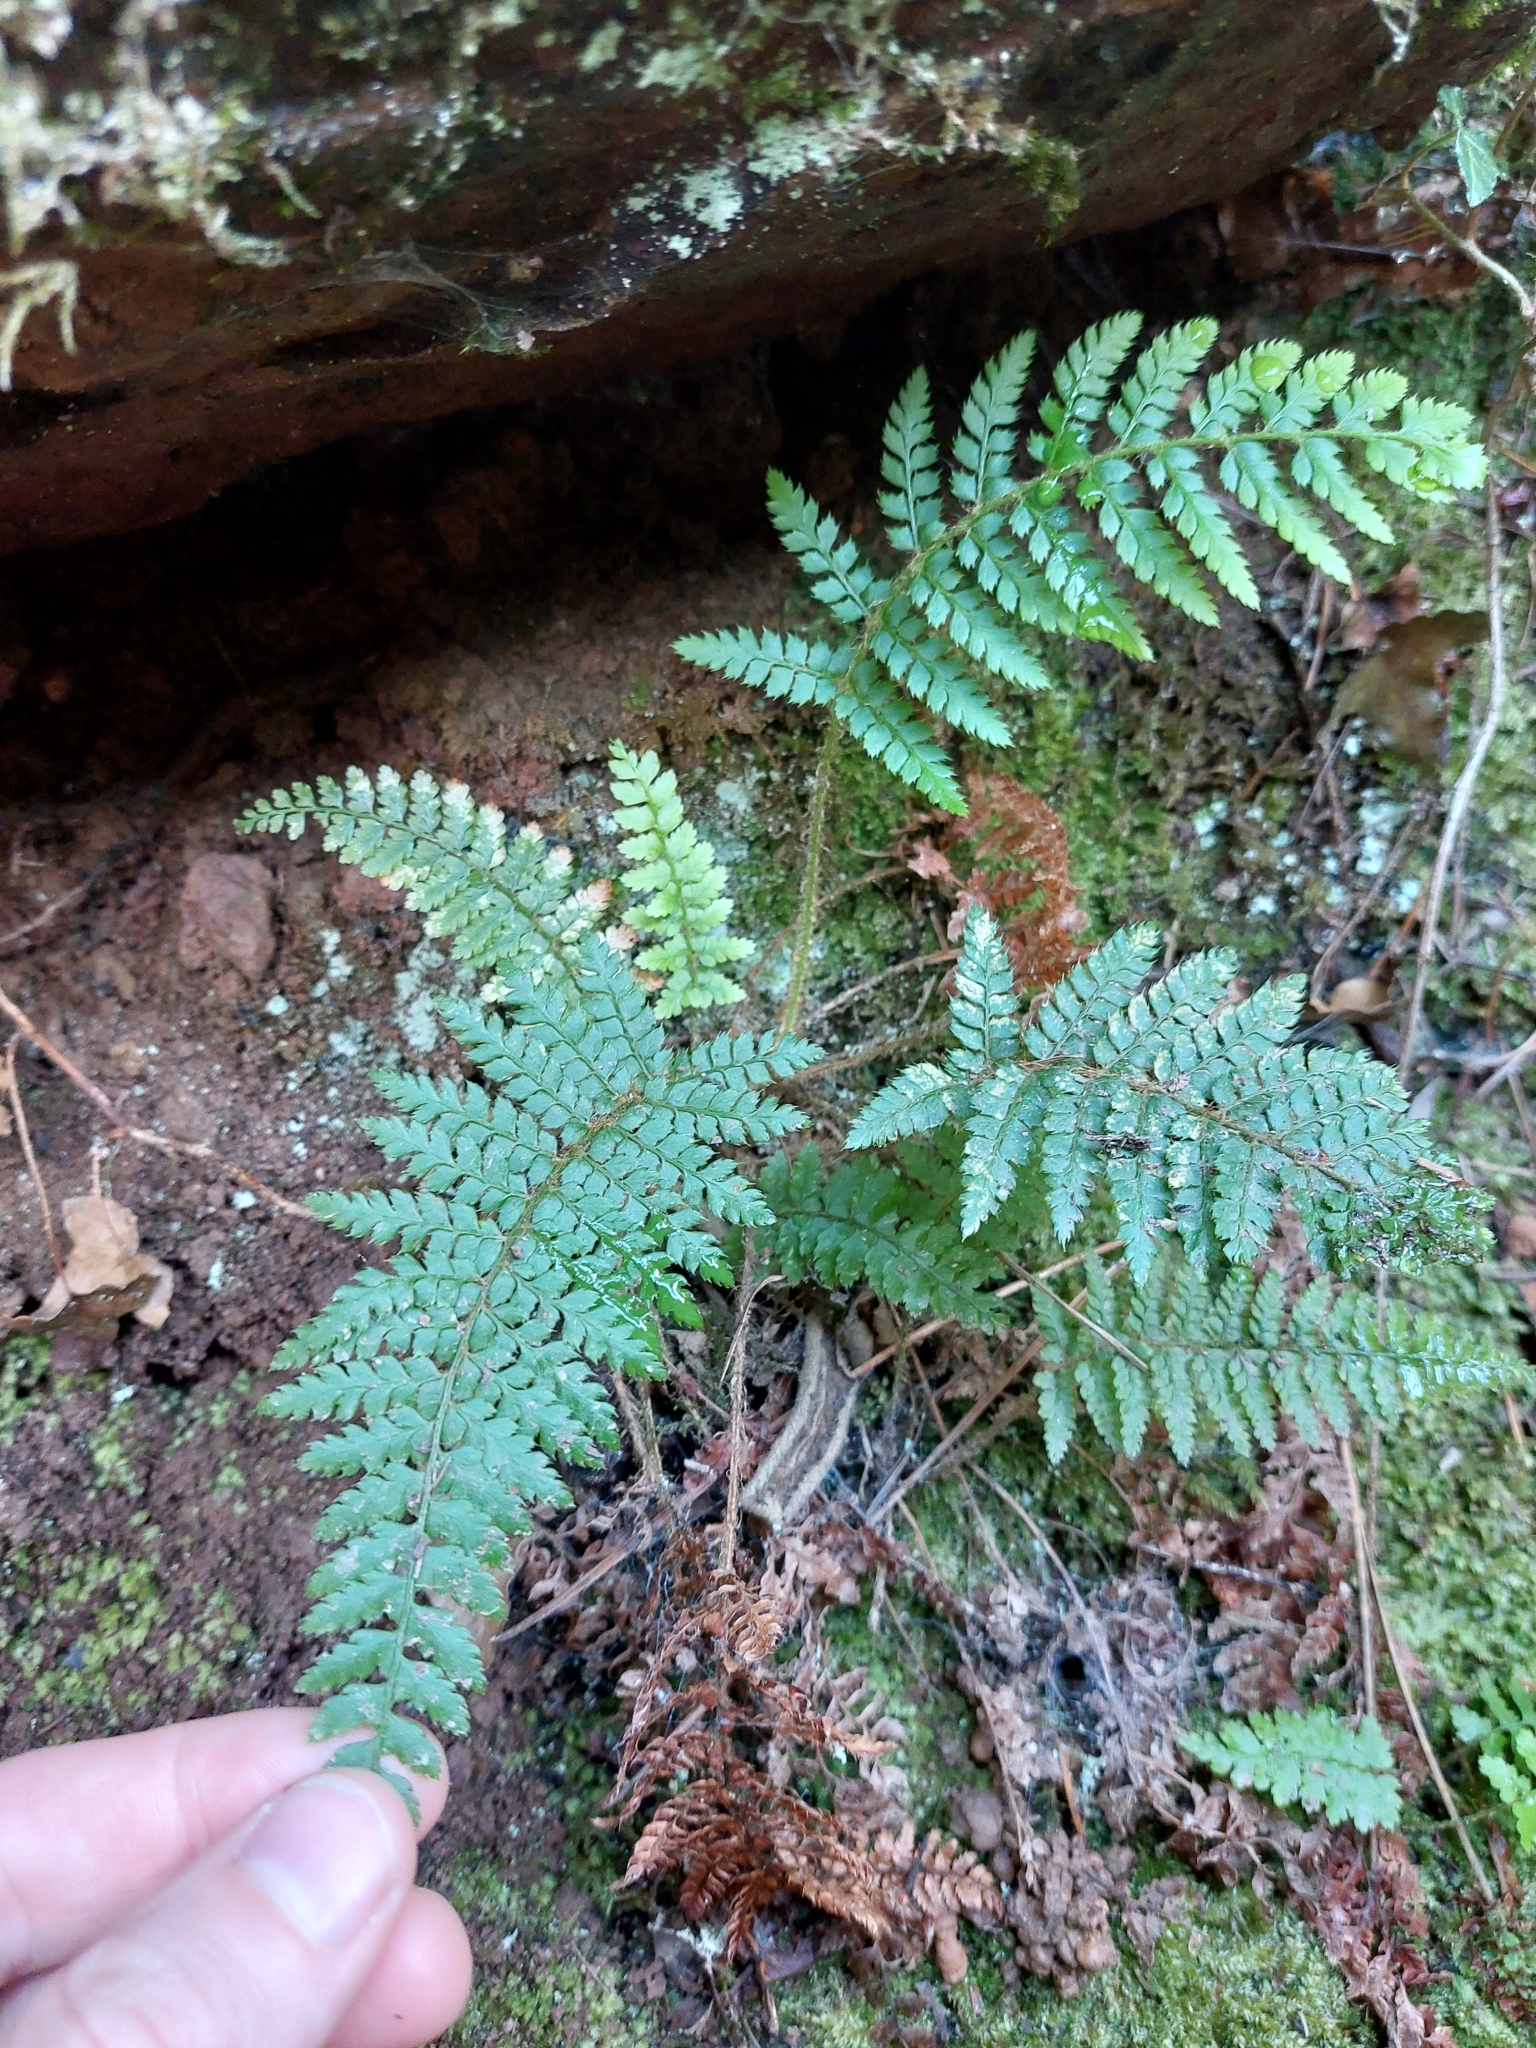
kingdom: Plantae
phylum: Tracheophyta
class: Polypodiopsida
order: Polypodiales
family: Dryopteridaceae
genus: Polystichum
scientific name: Polystichum setiferum
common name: Soft shield-fern
